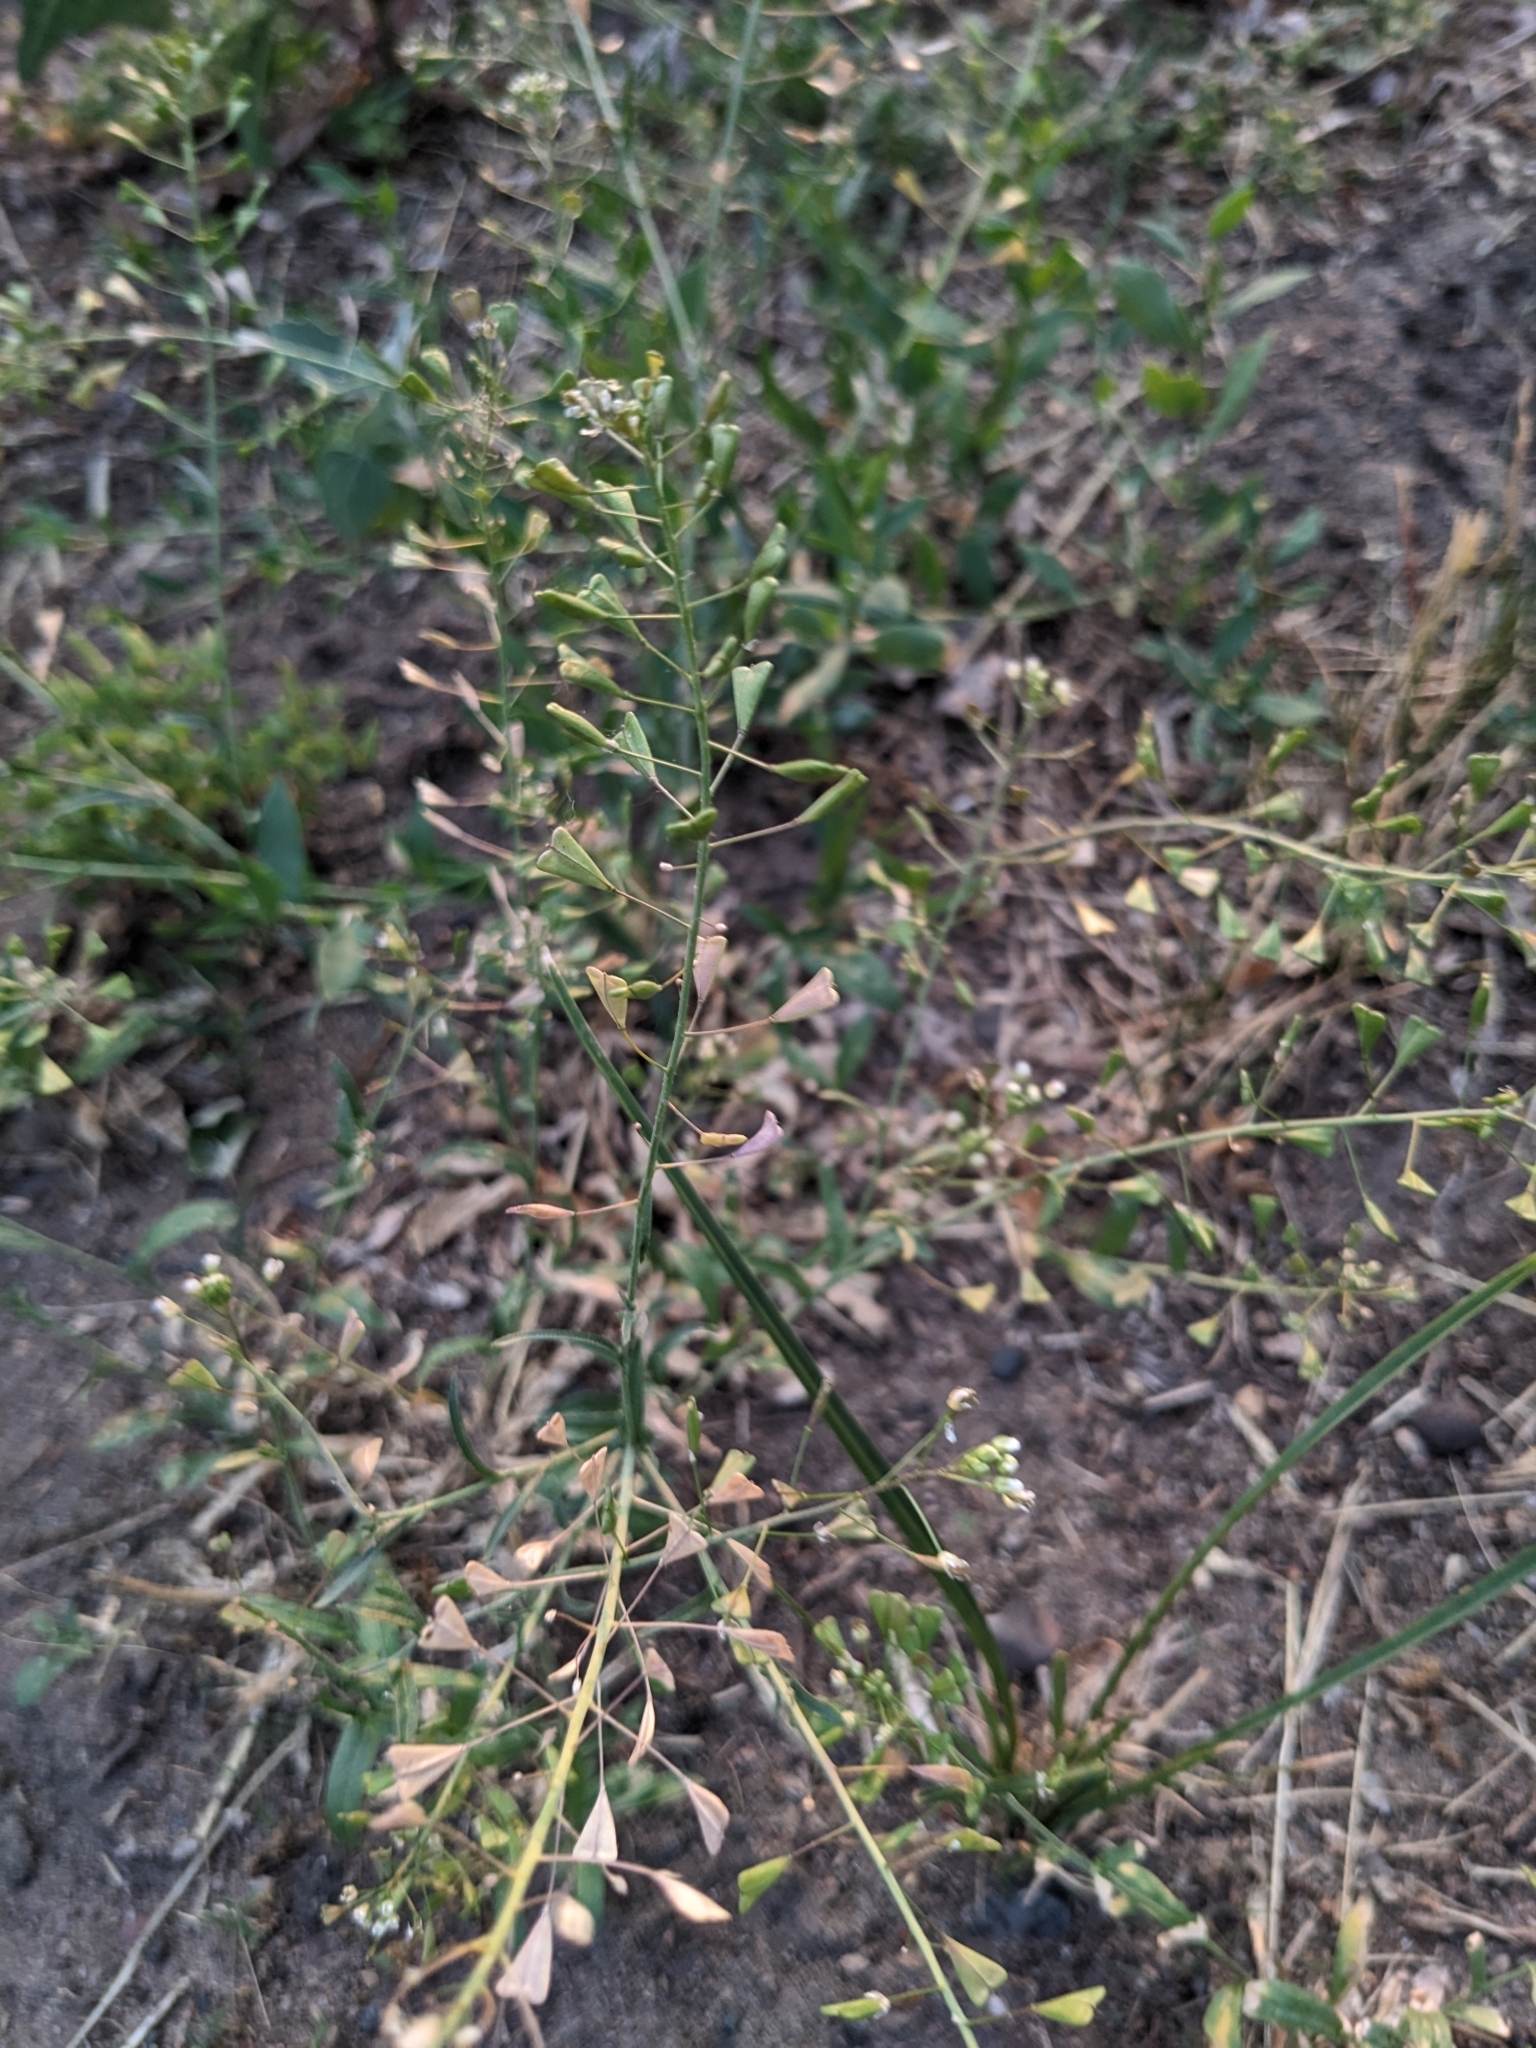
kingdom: Plantae
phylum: Tracheophyta
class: Magnoliopsida
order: Brassicales
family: Brassicaceae
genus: Capsella
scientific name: Capsella bursa-pastoris
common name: Shepherd's purse
